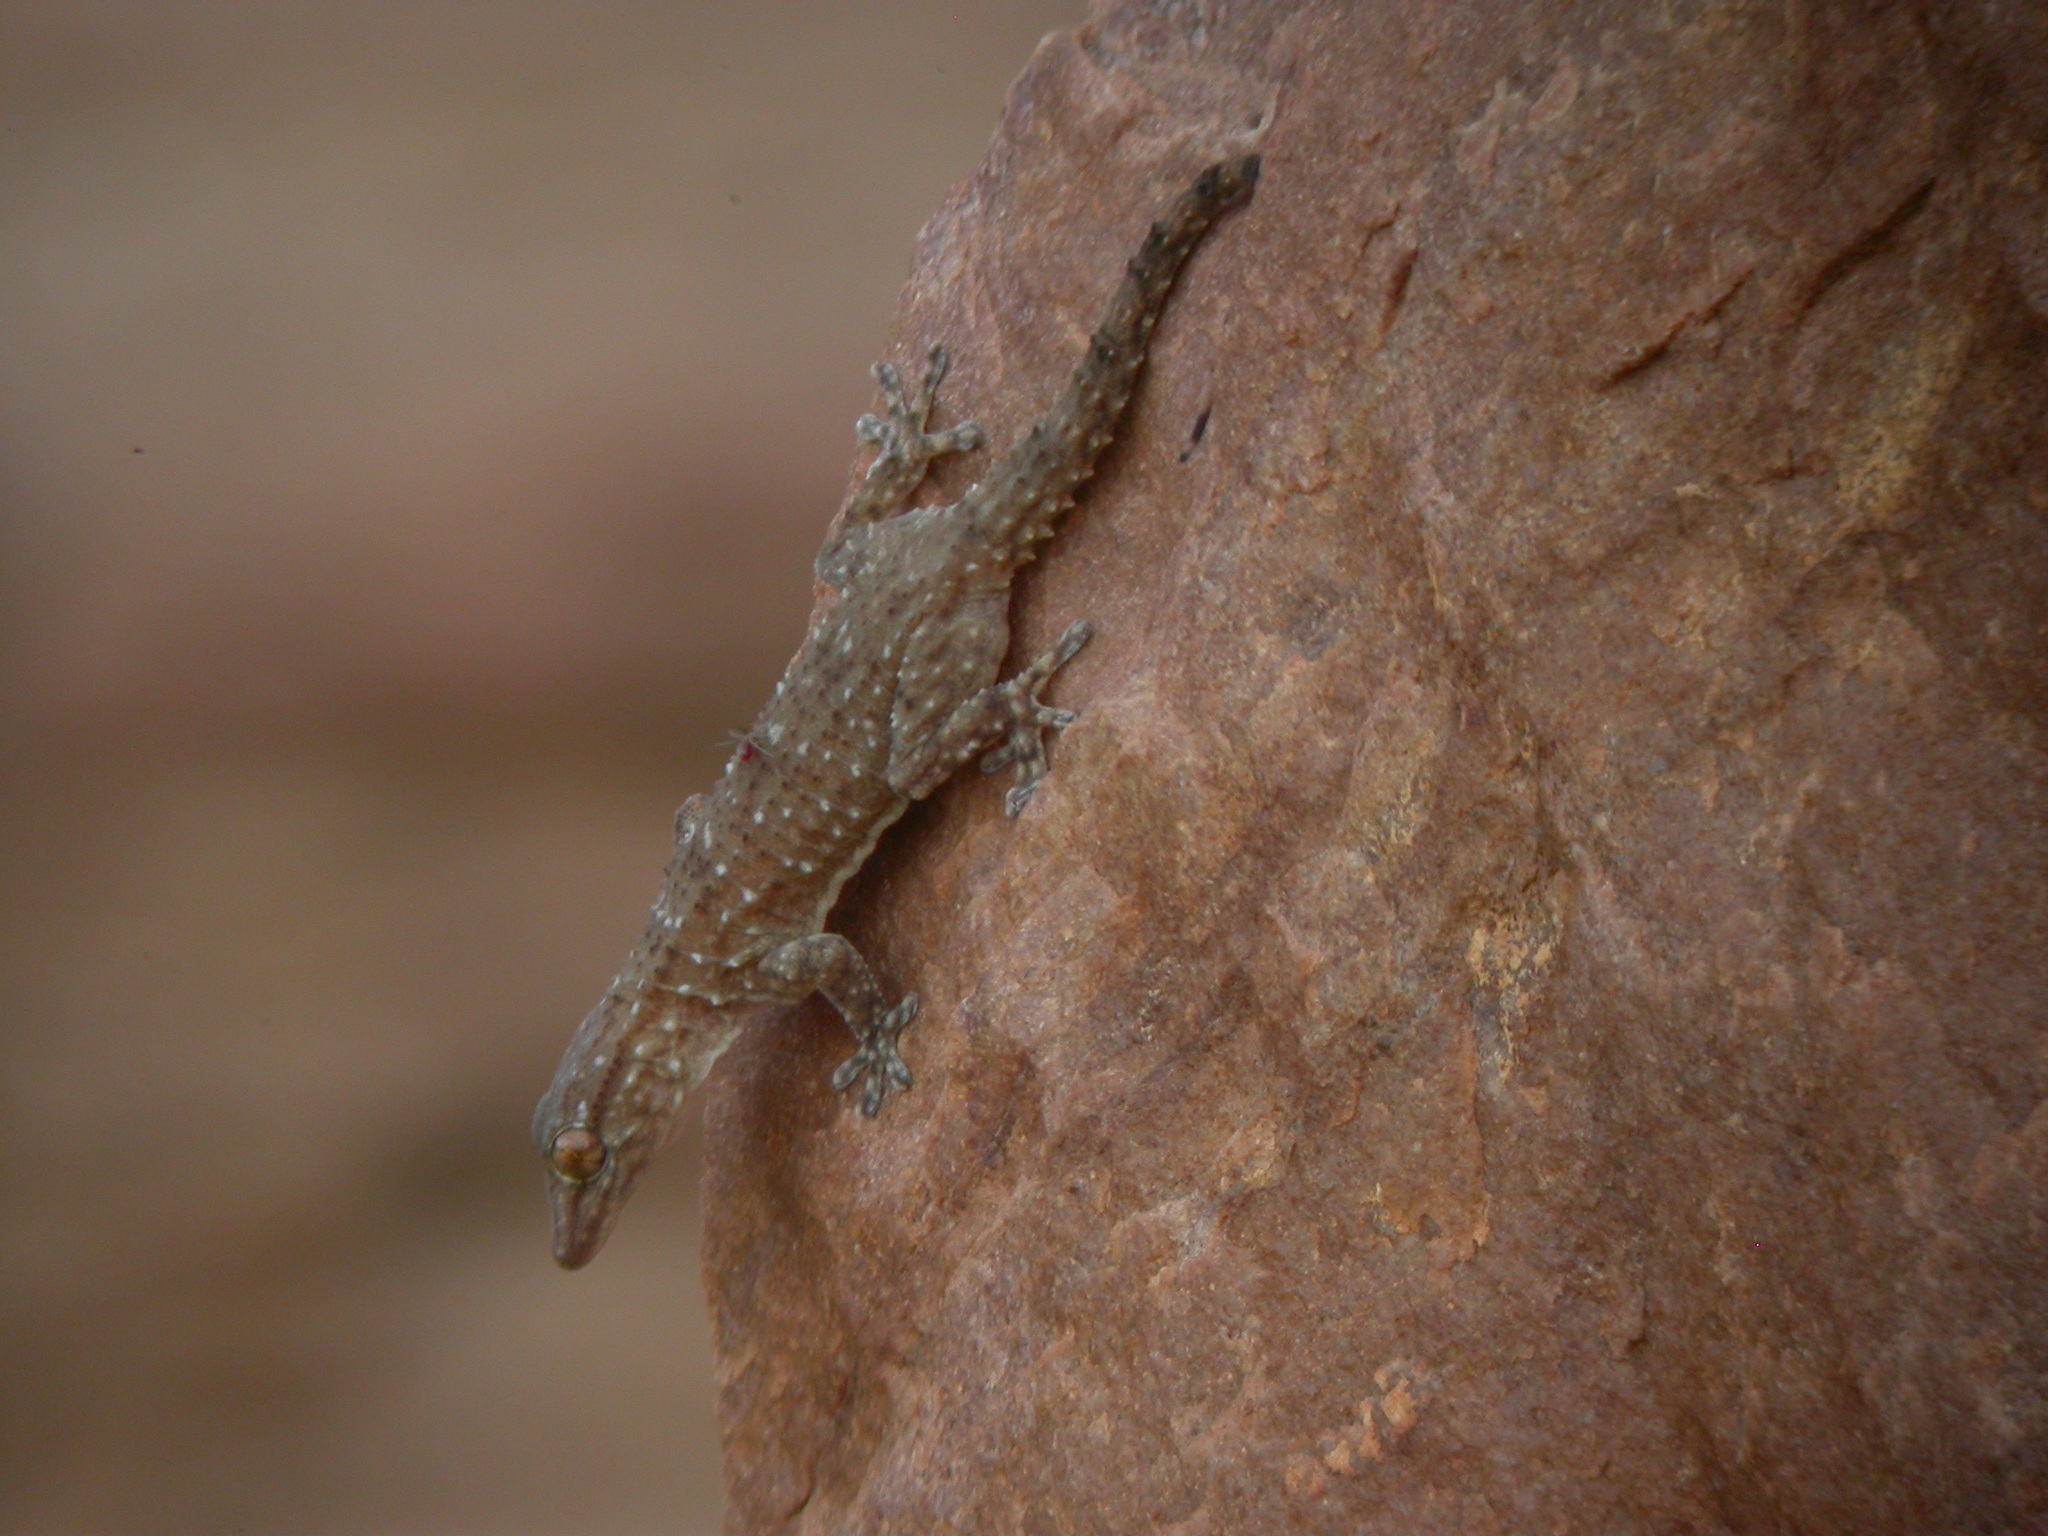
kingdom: Animalia
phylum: Chordata
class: Squamata
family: Phyllodactylidae
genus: Tarentola
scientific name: Tarentola parvicarinata
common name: White-spotted wall gecko
